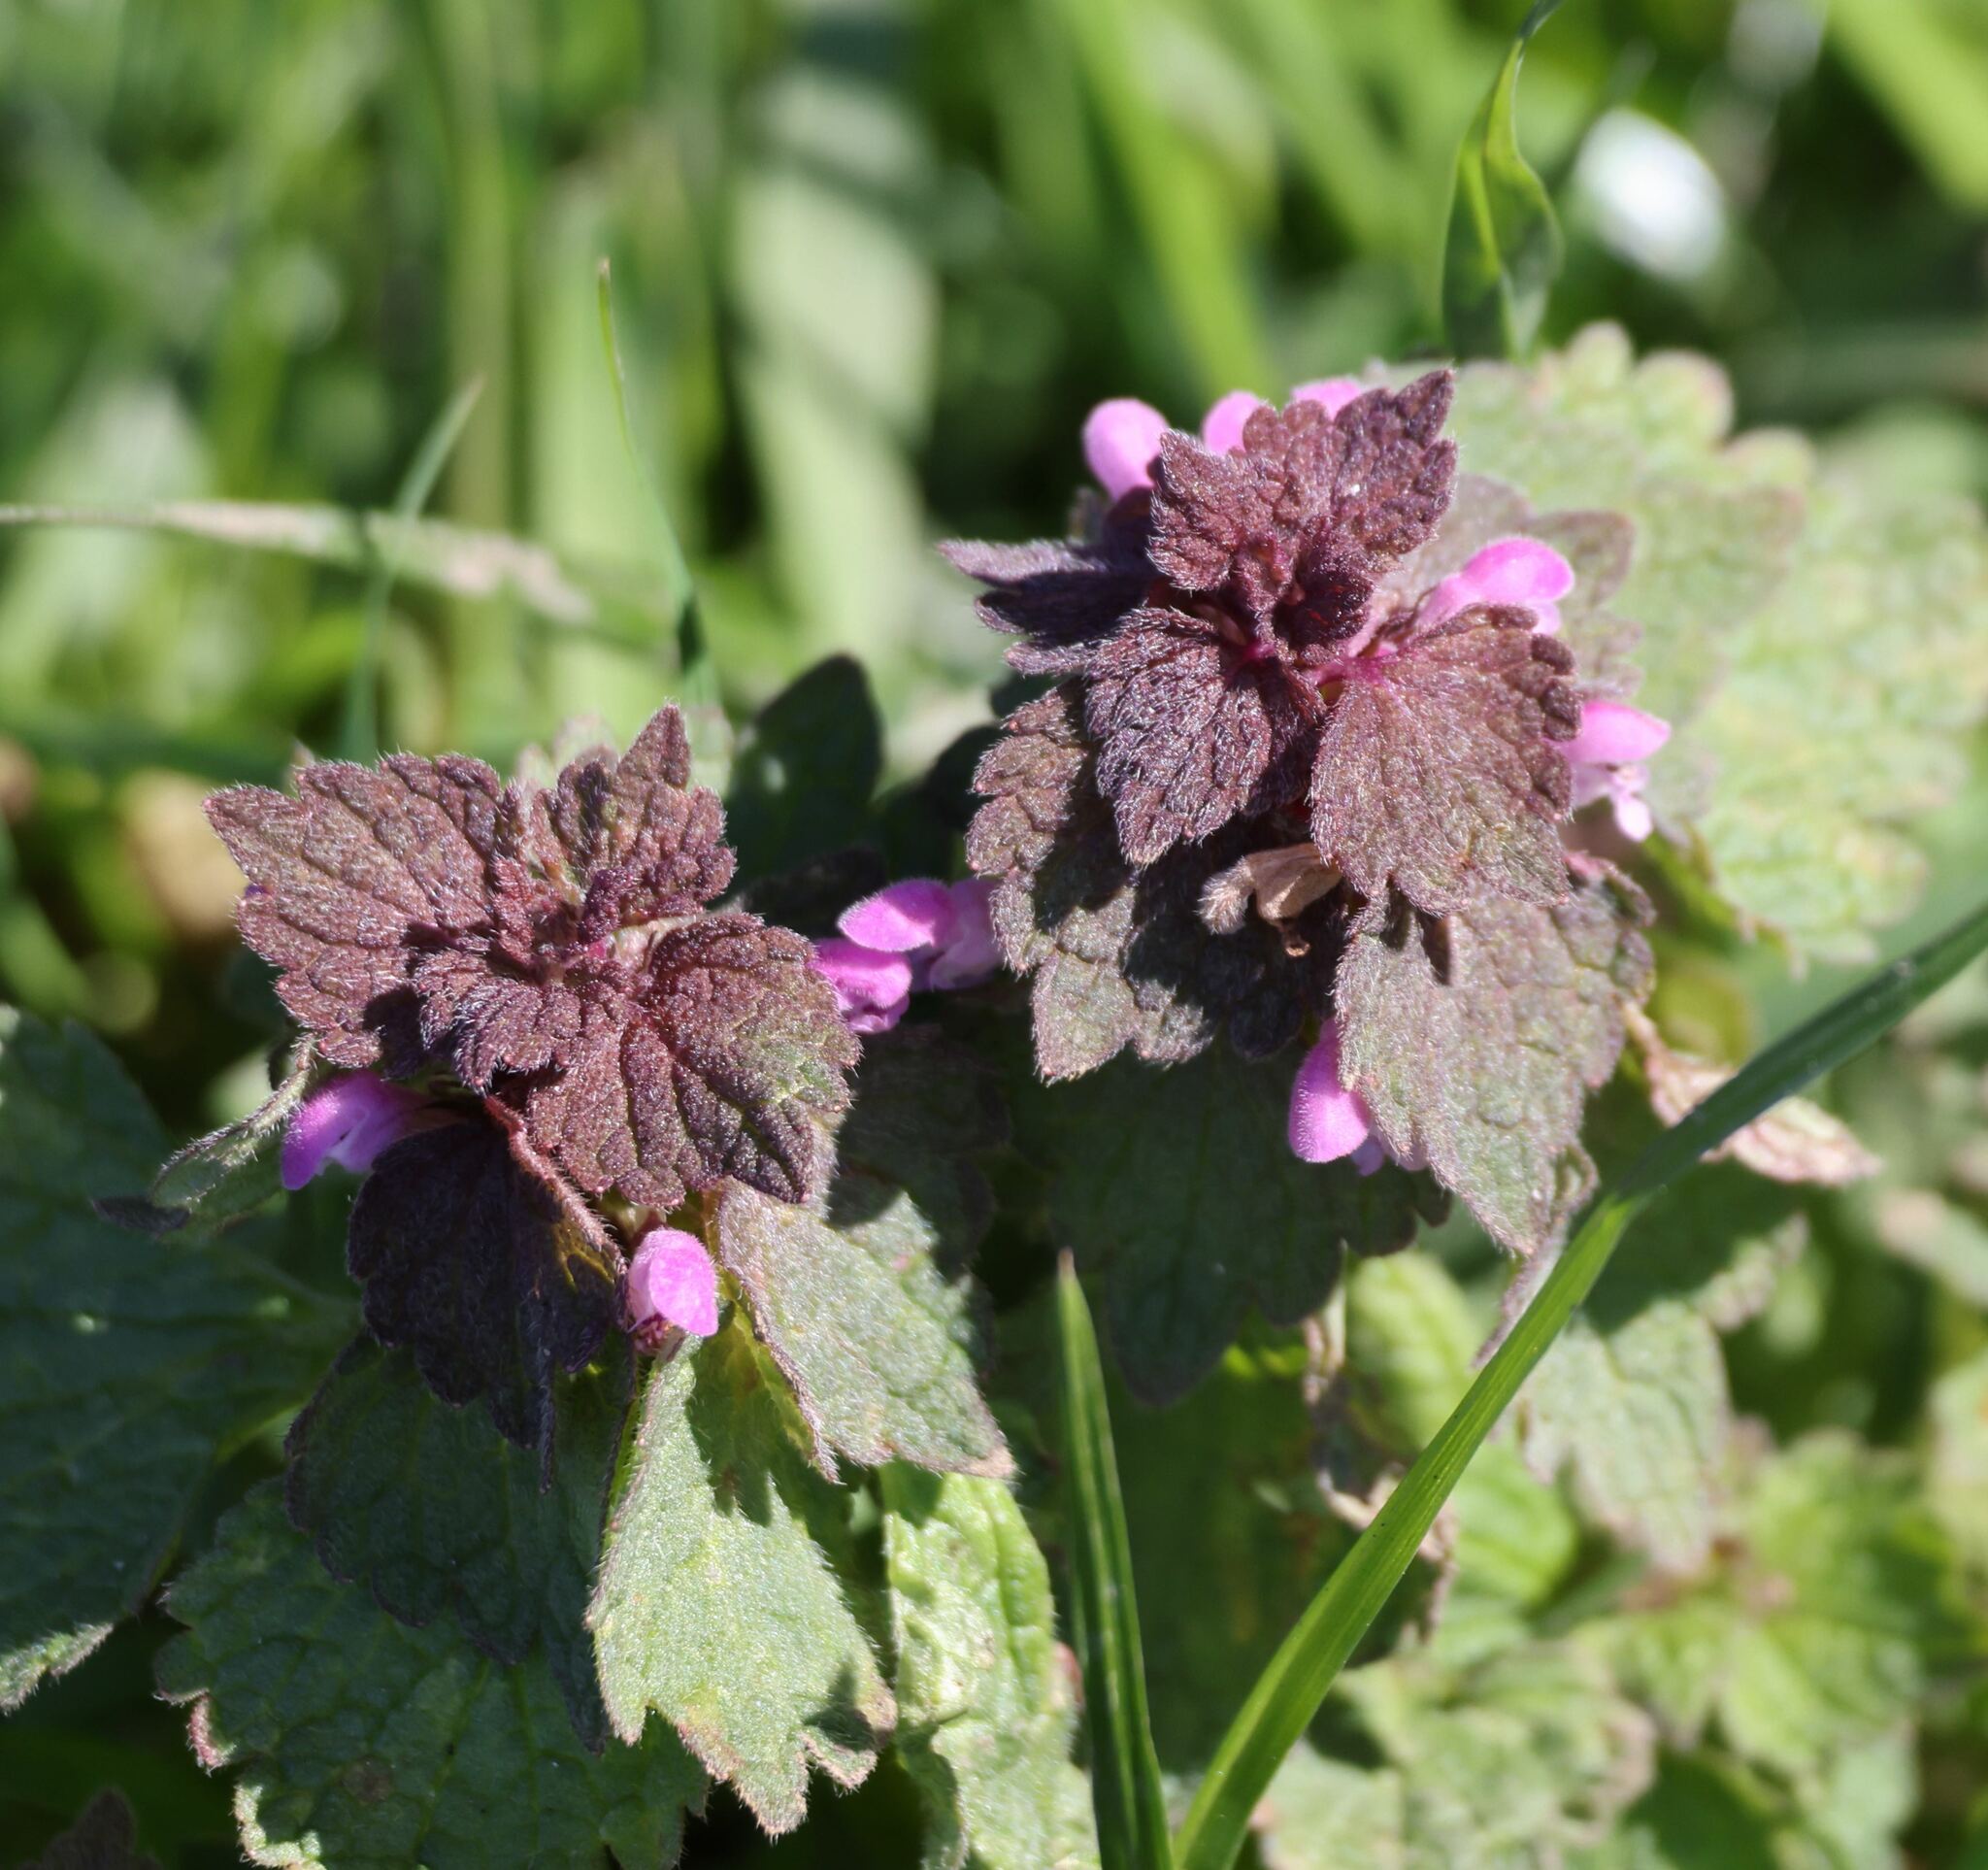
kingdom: Plantae
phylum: Tracheophyta
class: Magnoliopsida
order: Lamiales
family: Lamiaceae
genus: Lamium
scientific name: Lamium purpureum
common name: Red dead-nettle
